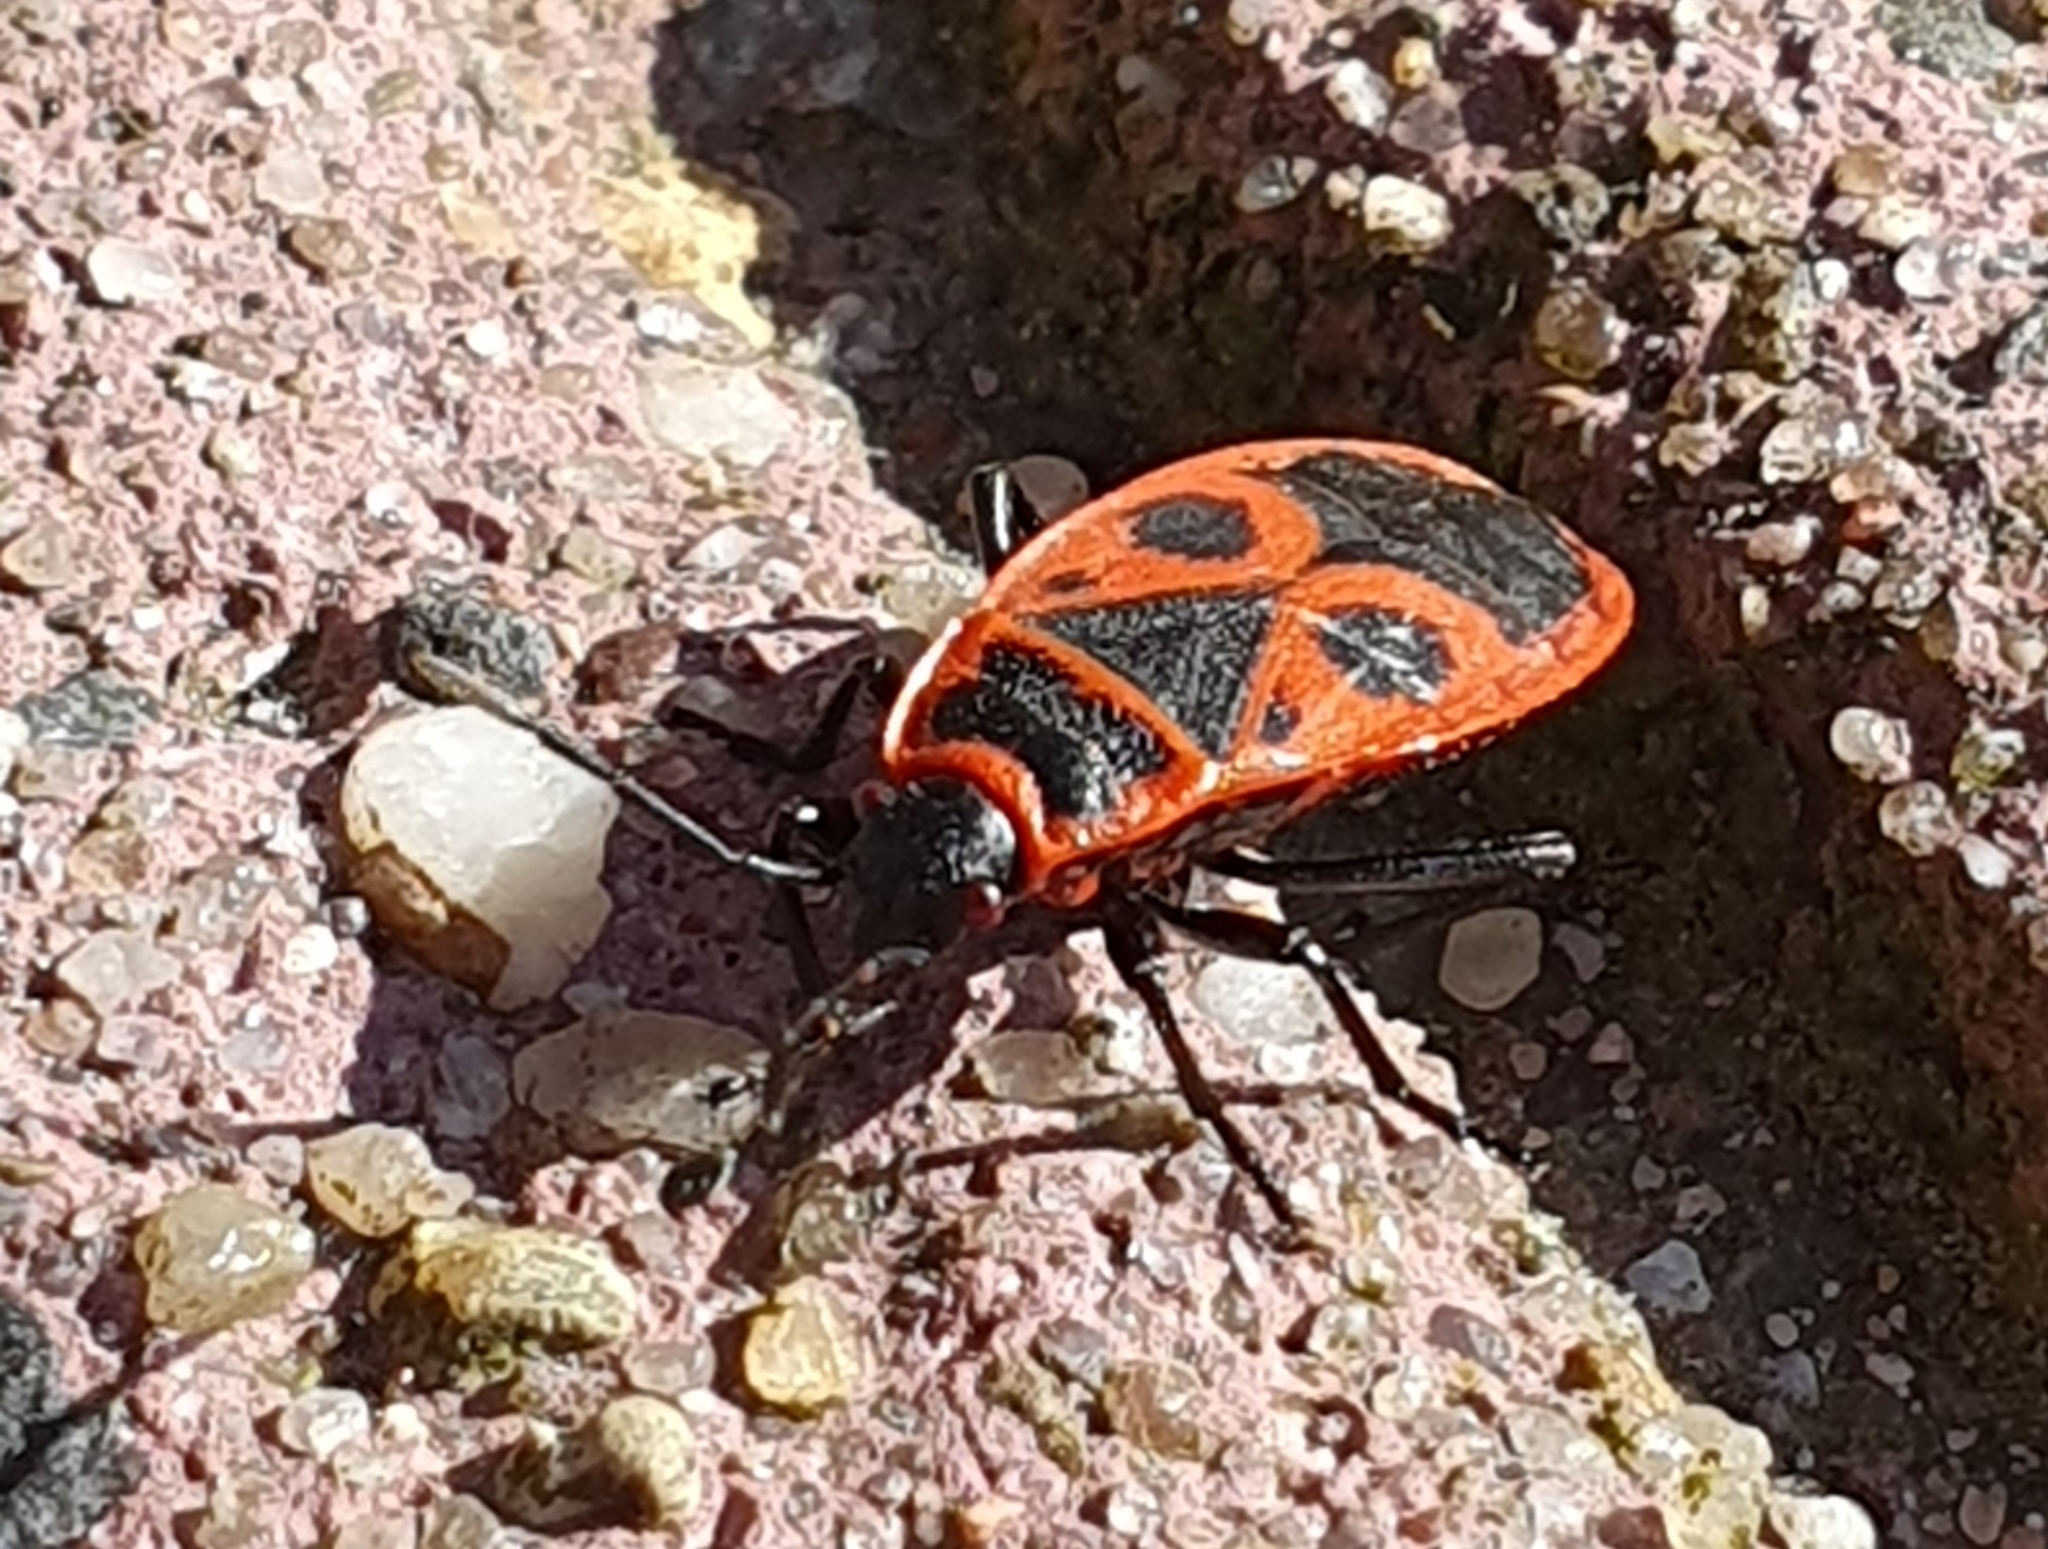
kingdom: Animalia
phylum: Arthropoda
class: Insecta
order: Hemiptera
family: Pyrrhocoridae
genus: Pyrrhocoris
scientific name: Pyrrhocoris apterus
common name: Firebug
